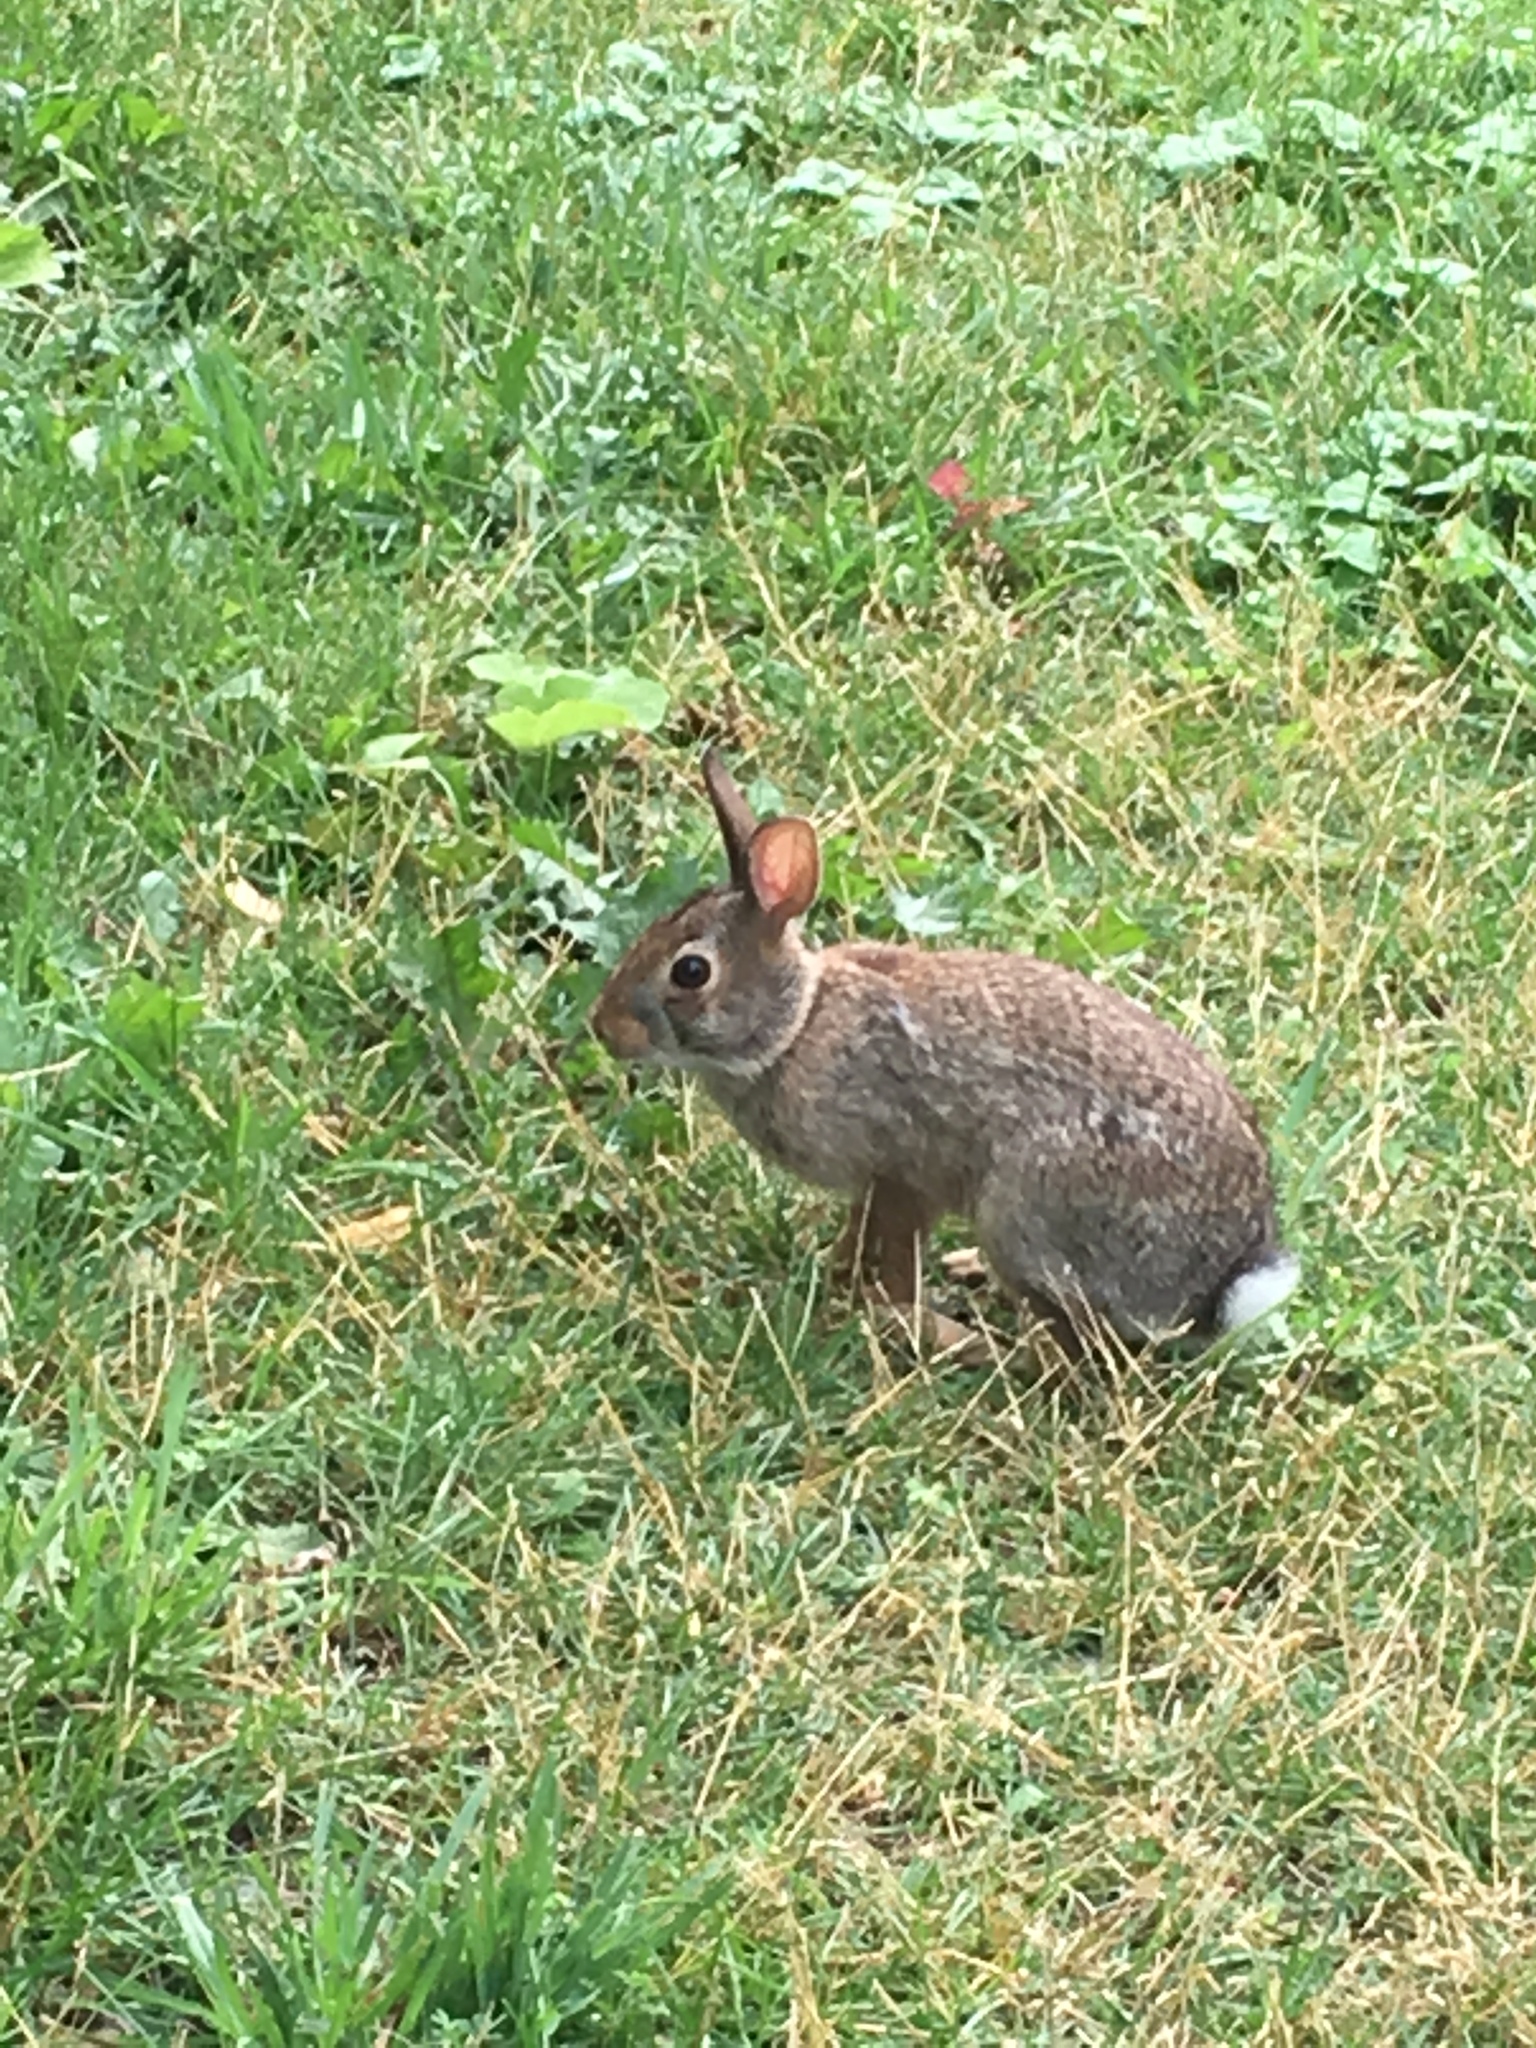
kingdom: Animalia
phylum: Chordata
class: Mammalia
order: Lagomorpha
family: Leporidae
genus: Sylvilagus
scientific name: Sylvilagus floridanus
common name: Eastern cottontail
